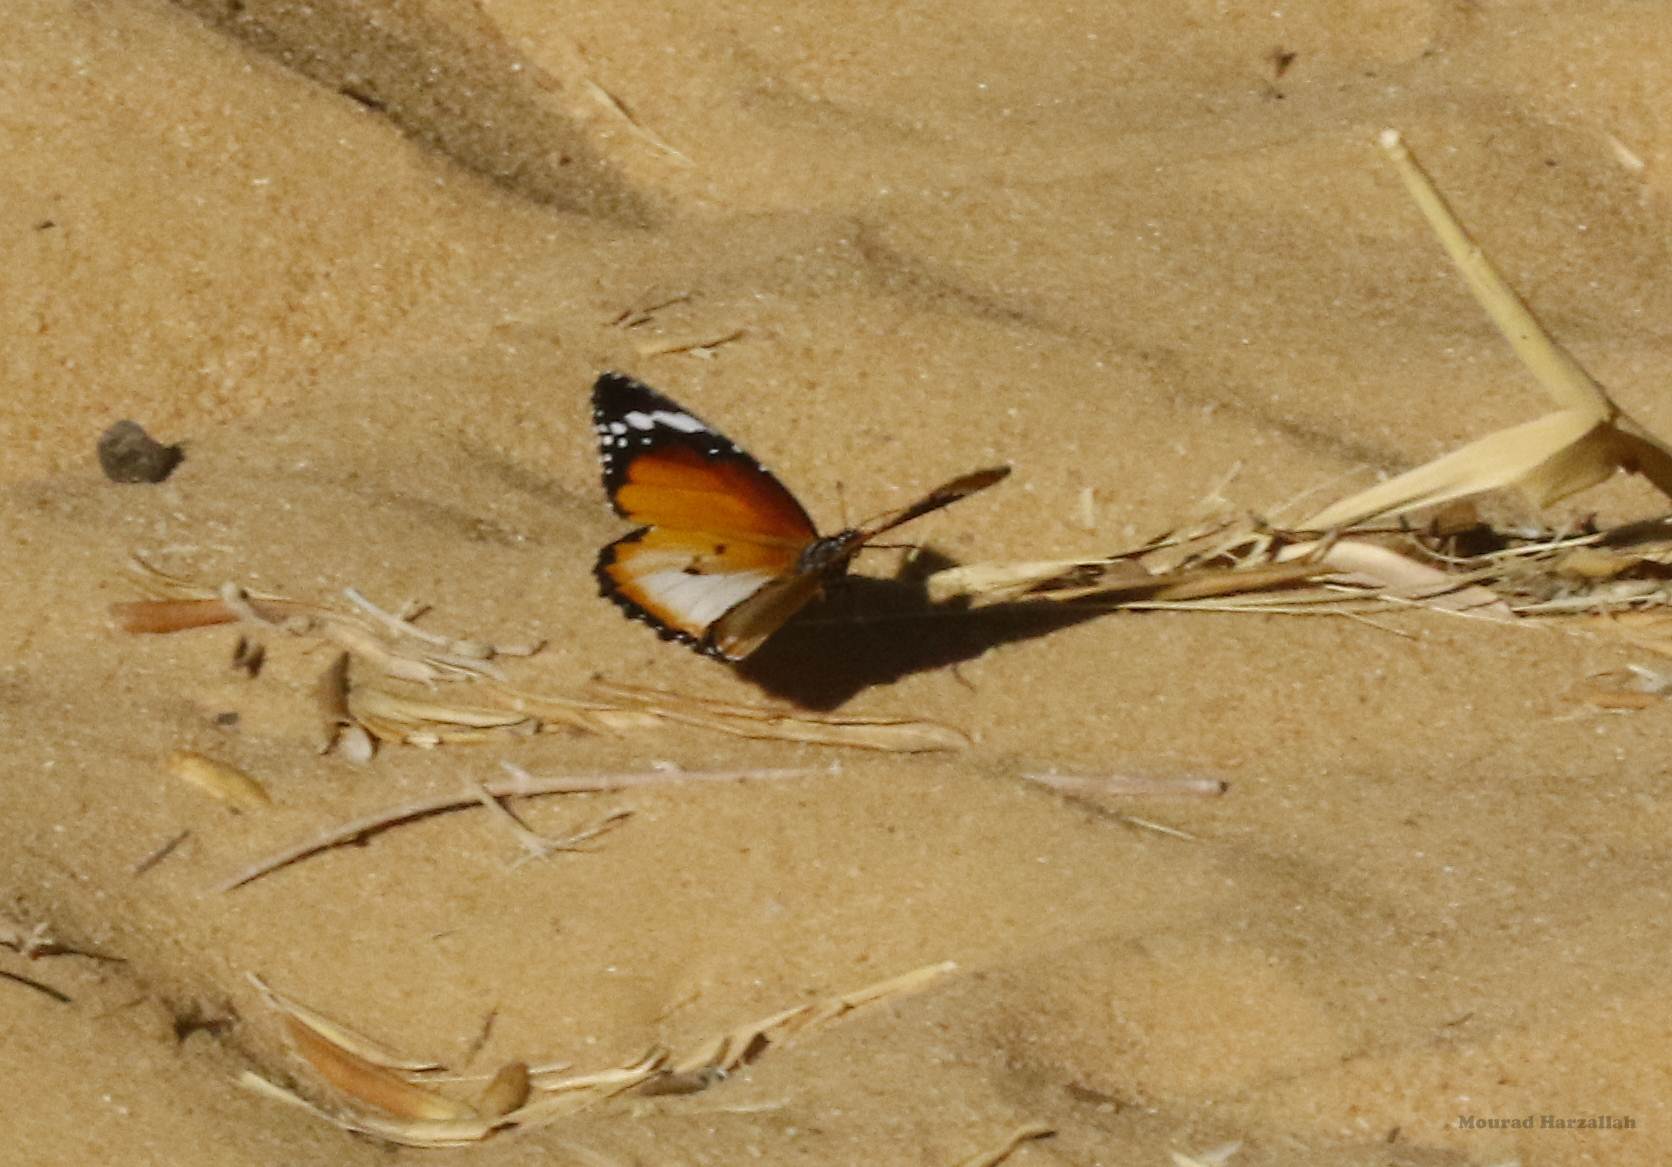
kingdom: Animalia
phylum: Arthropoda
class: Insecta
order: Lepidoptera
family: Nymphalidae
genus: Danaus
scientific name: Danaus chrysippus
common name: Plain tiger
